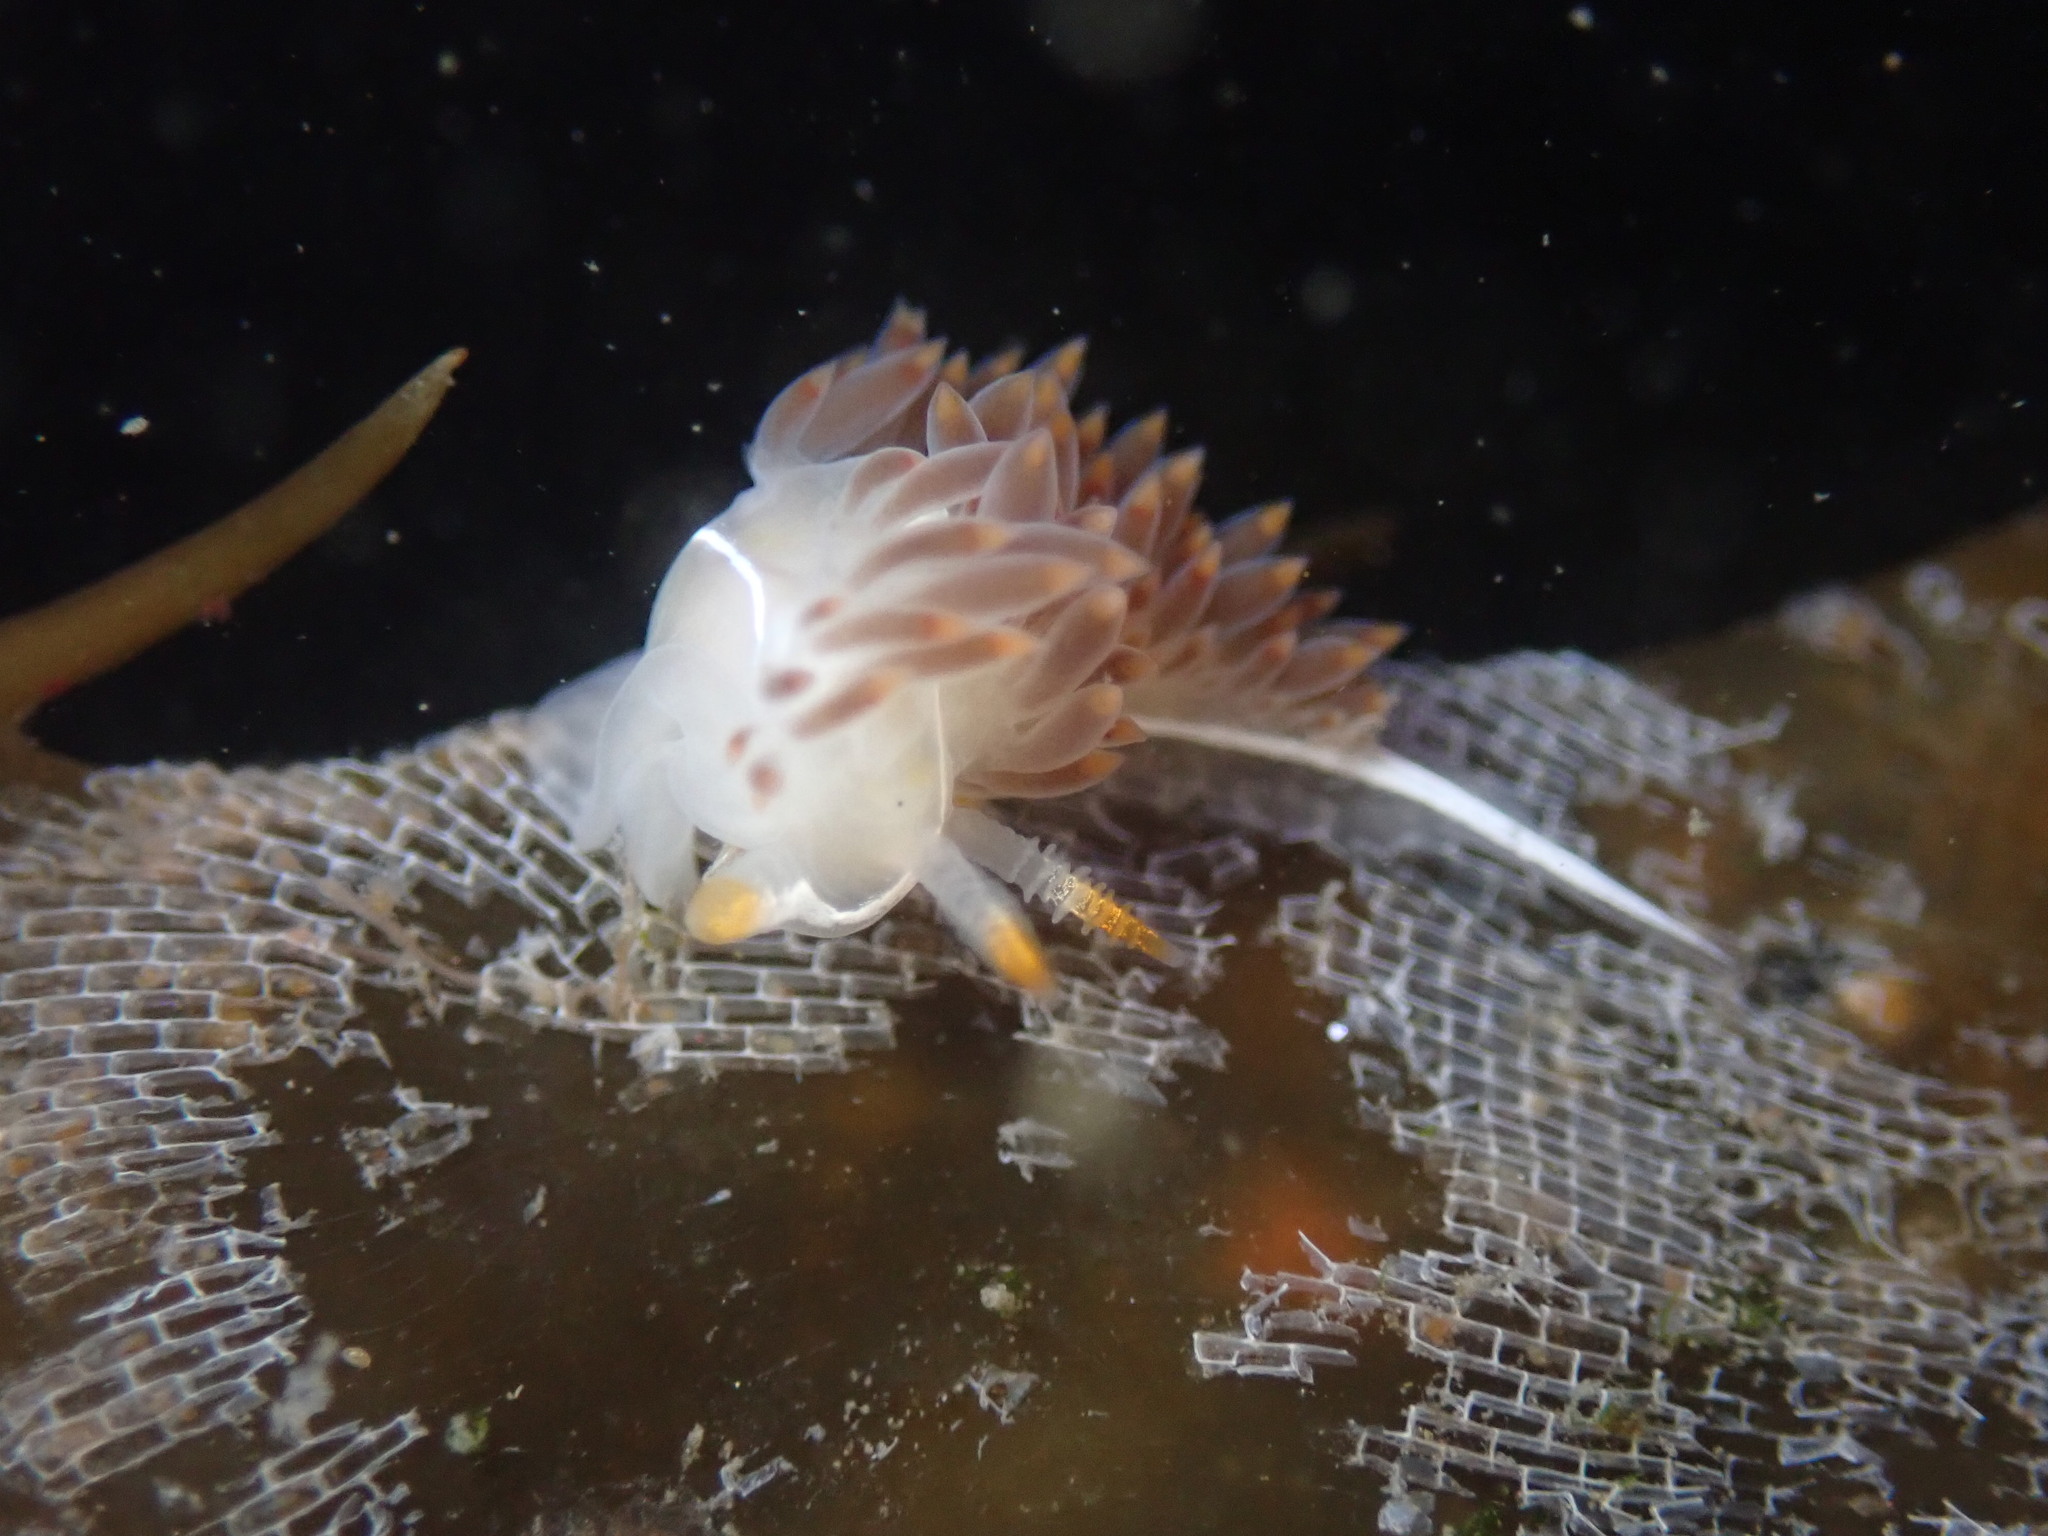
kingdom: Animalia
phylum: Mollusca
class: Gastropoda
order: Nudibranchia
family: Coryphellidae
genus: Coryphella
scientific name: Coryphella trilineata
